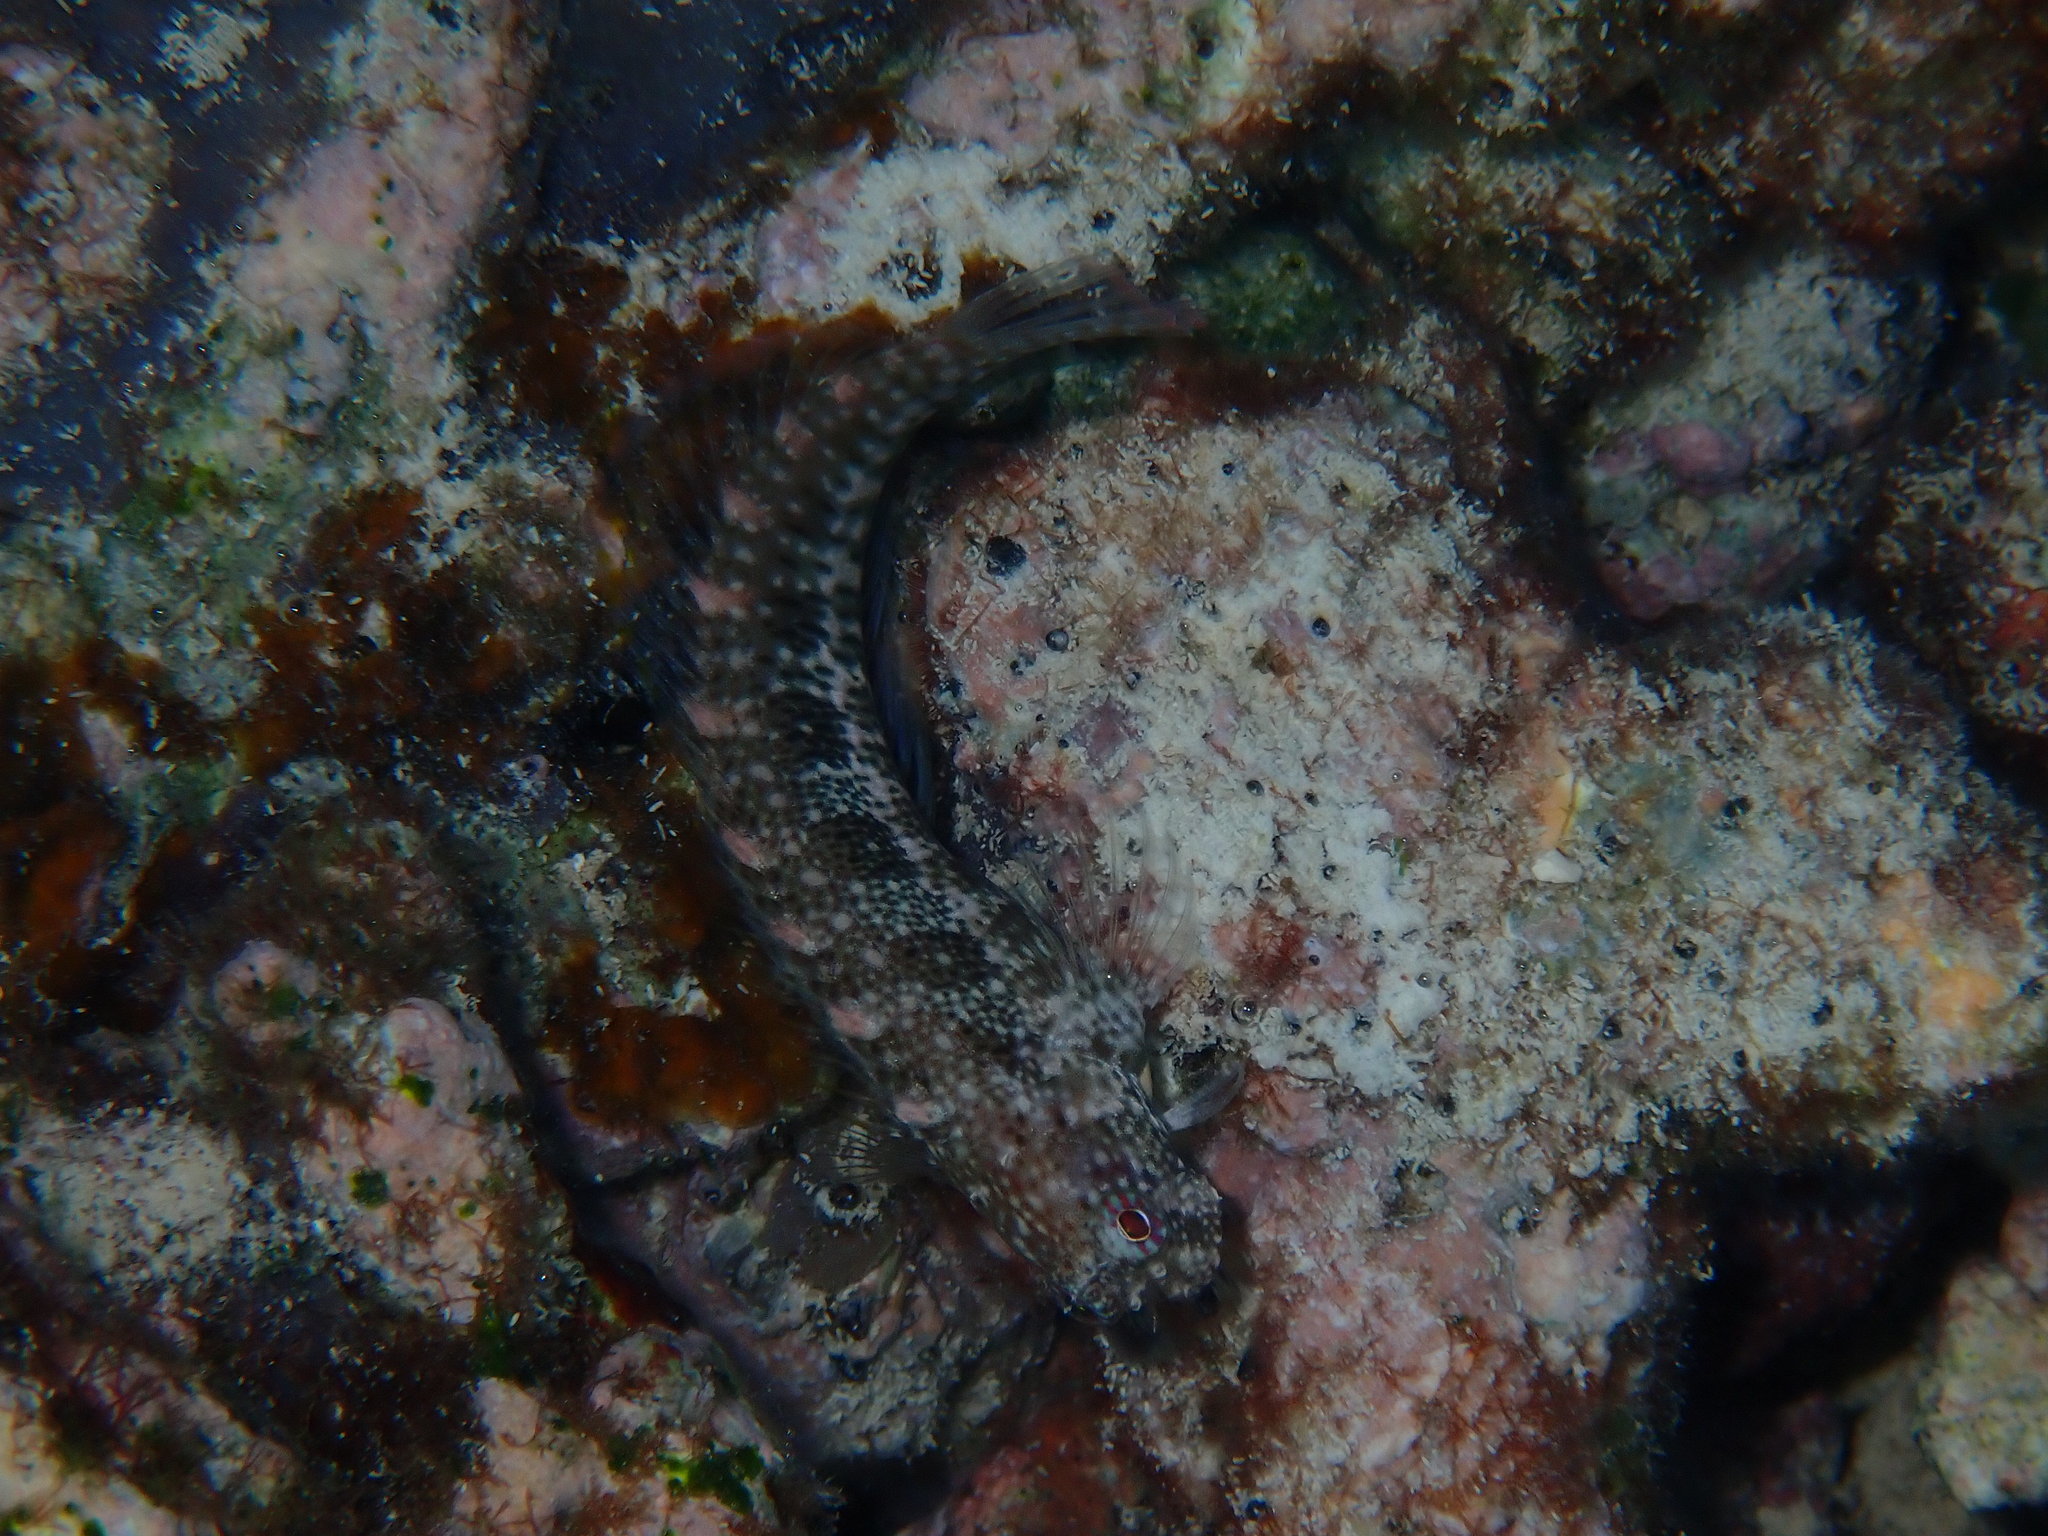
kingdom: Animalia
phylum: Chordata
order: Perciformes
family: Blenniidae
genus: Salarias
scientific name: Salarias guttatus
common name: Breast-spot blenny
